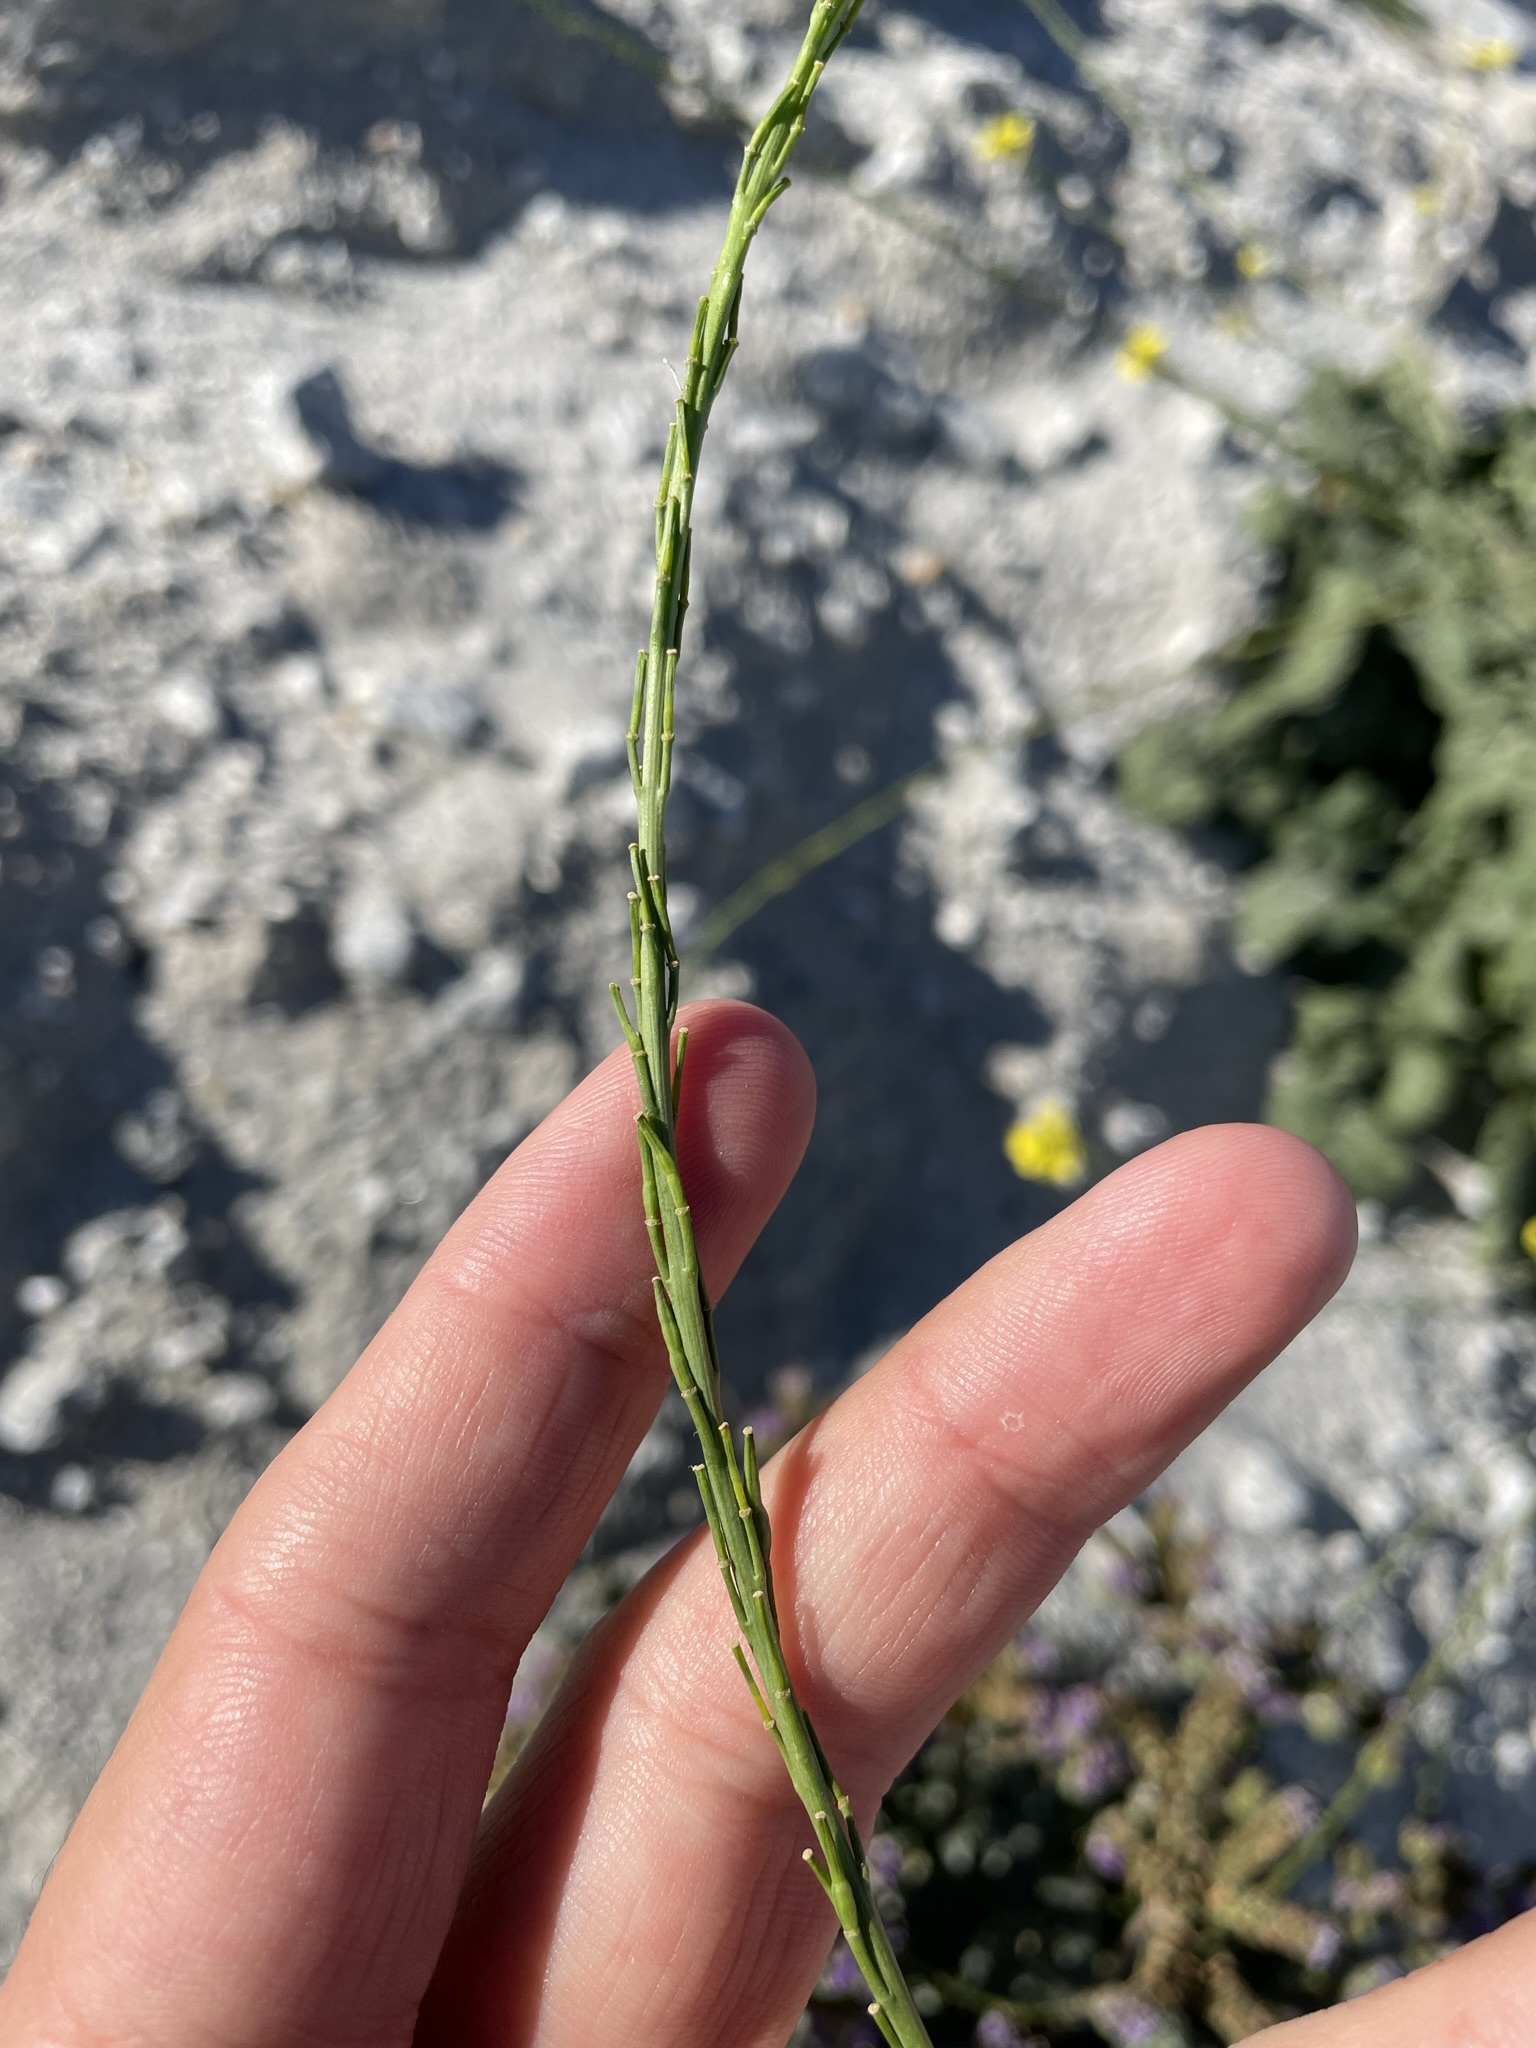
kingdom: Plantae
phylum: Tracheophyta
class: Magnoliopsida
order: Brassicales
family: Brassicaceae
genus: Hirschfeldia
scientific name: Hirschfeldia incana
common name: Hoary mustard
